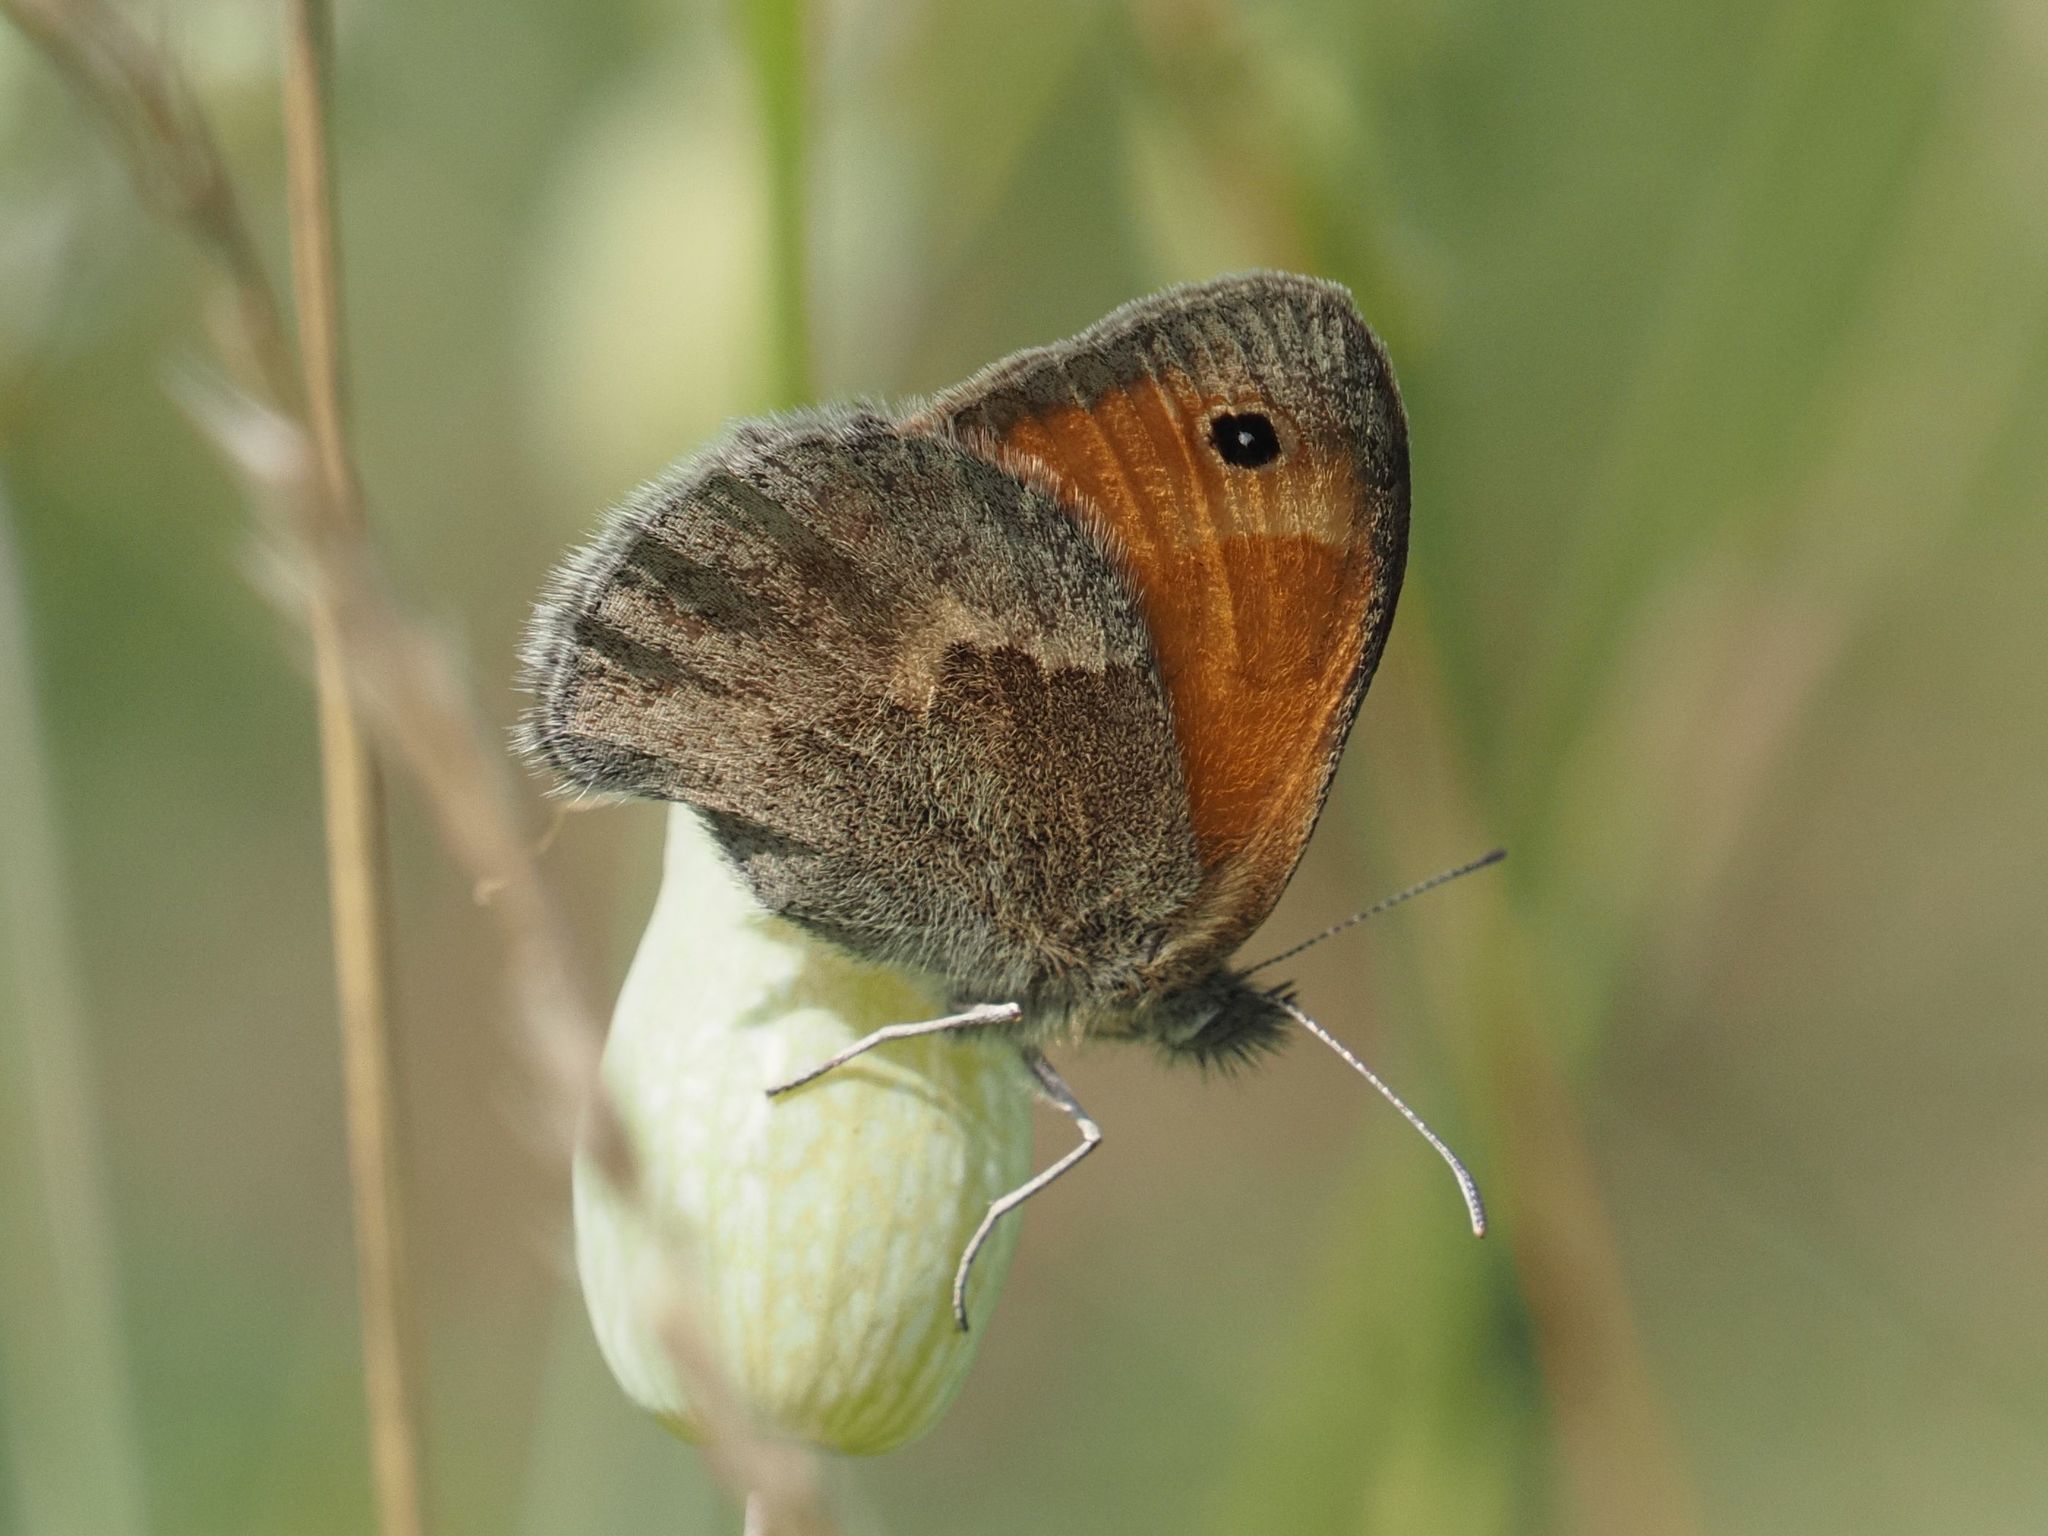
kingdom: Animalia
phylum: Arthropoda
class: Insecta
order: Lepidoptera
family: Nymphalidae
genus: Coenonympha
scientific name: Coenonympha pamphilus
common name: Small heath
